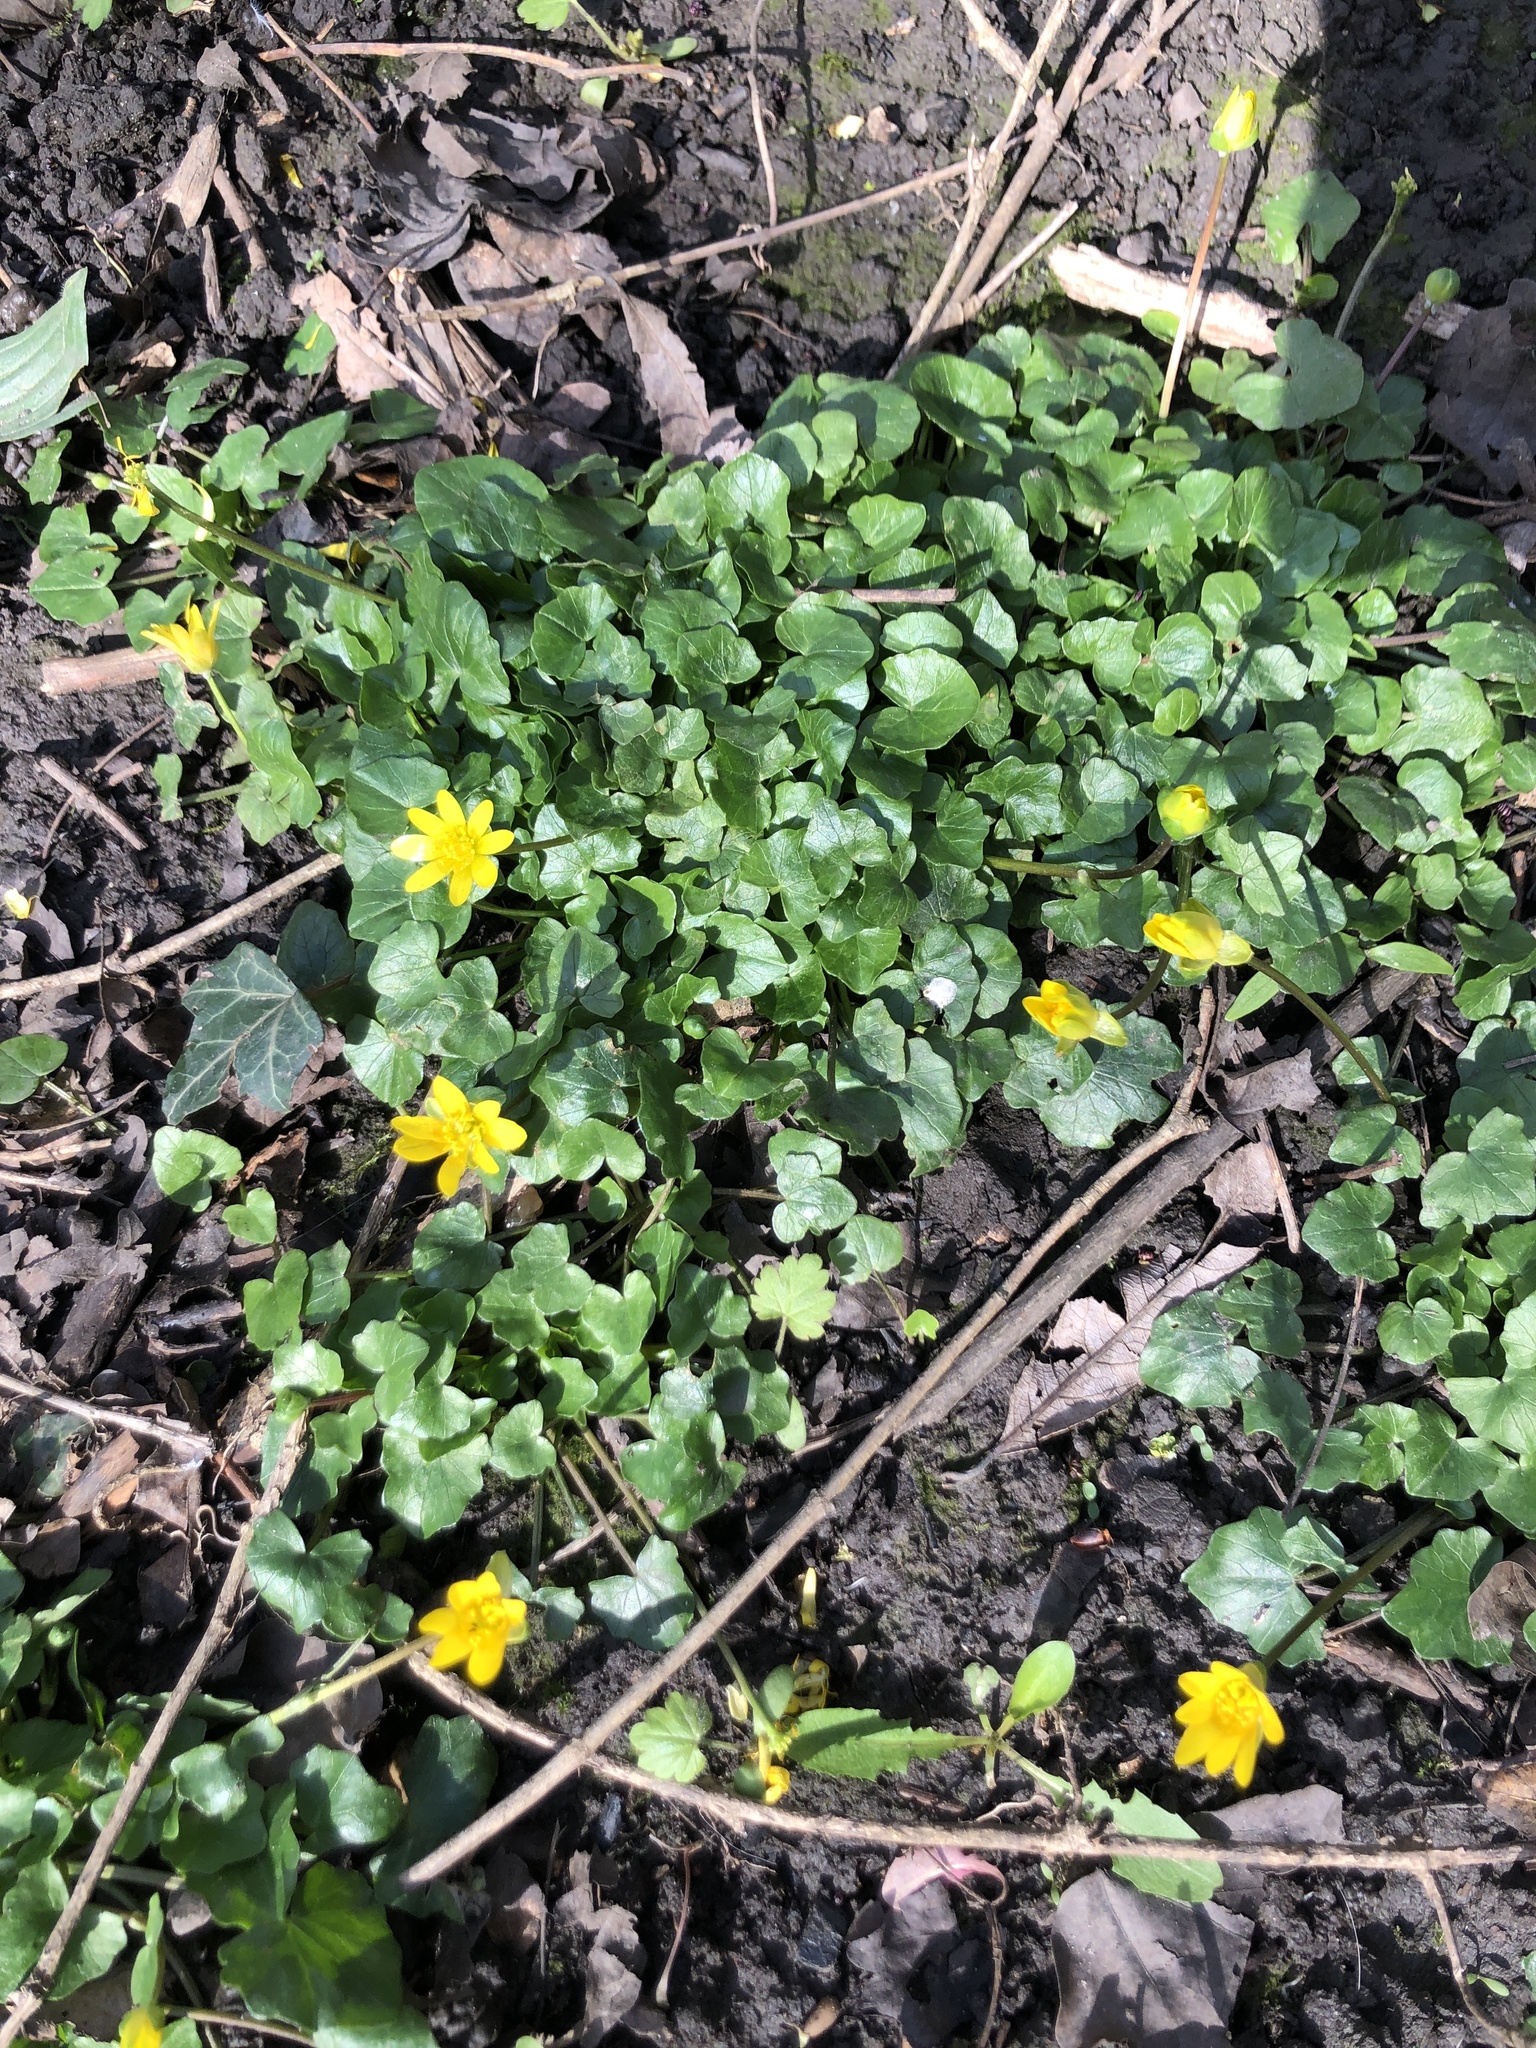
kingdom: Plantae
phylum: Tracheophyta
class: Magnoliopsida
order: Ranunculales
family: Ranunculaceae
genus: Ficaria
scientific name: Ficaria verna
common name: Lesser celandine
